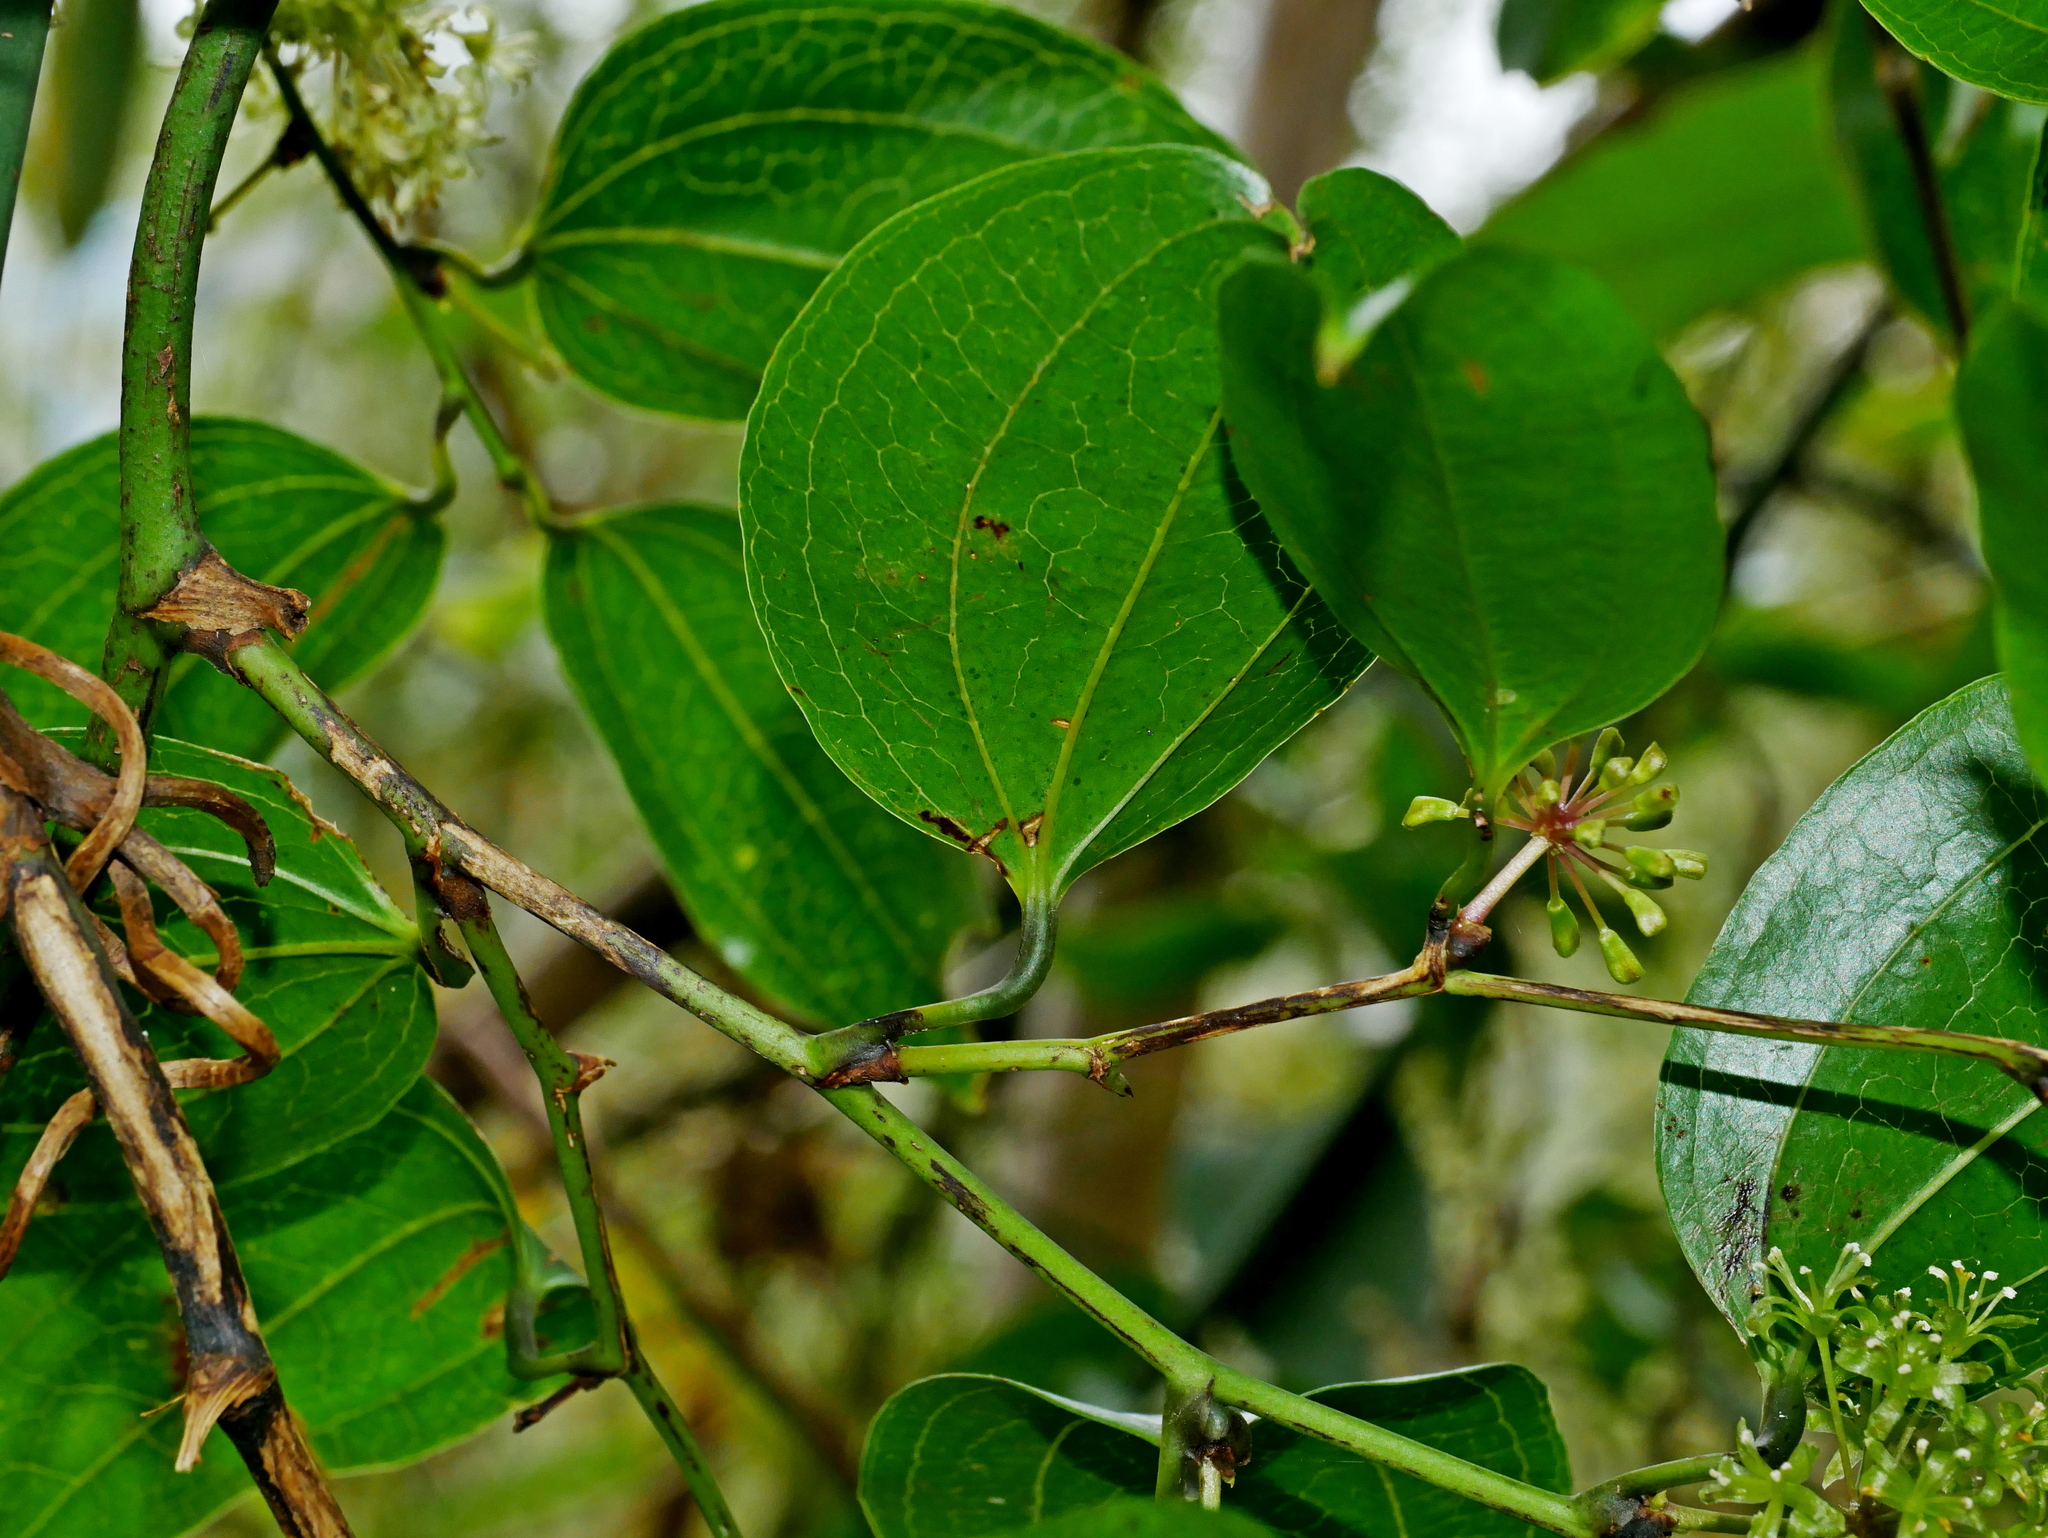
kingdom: Plantae
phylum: Tracheophyta
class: Liliopsida
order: Liliales
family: Smilacaceae
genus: Smilax
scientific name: Smilax lanceifolia
